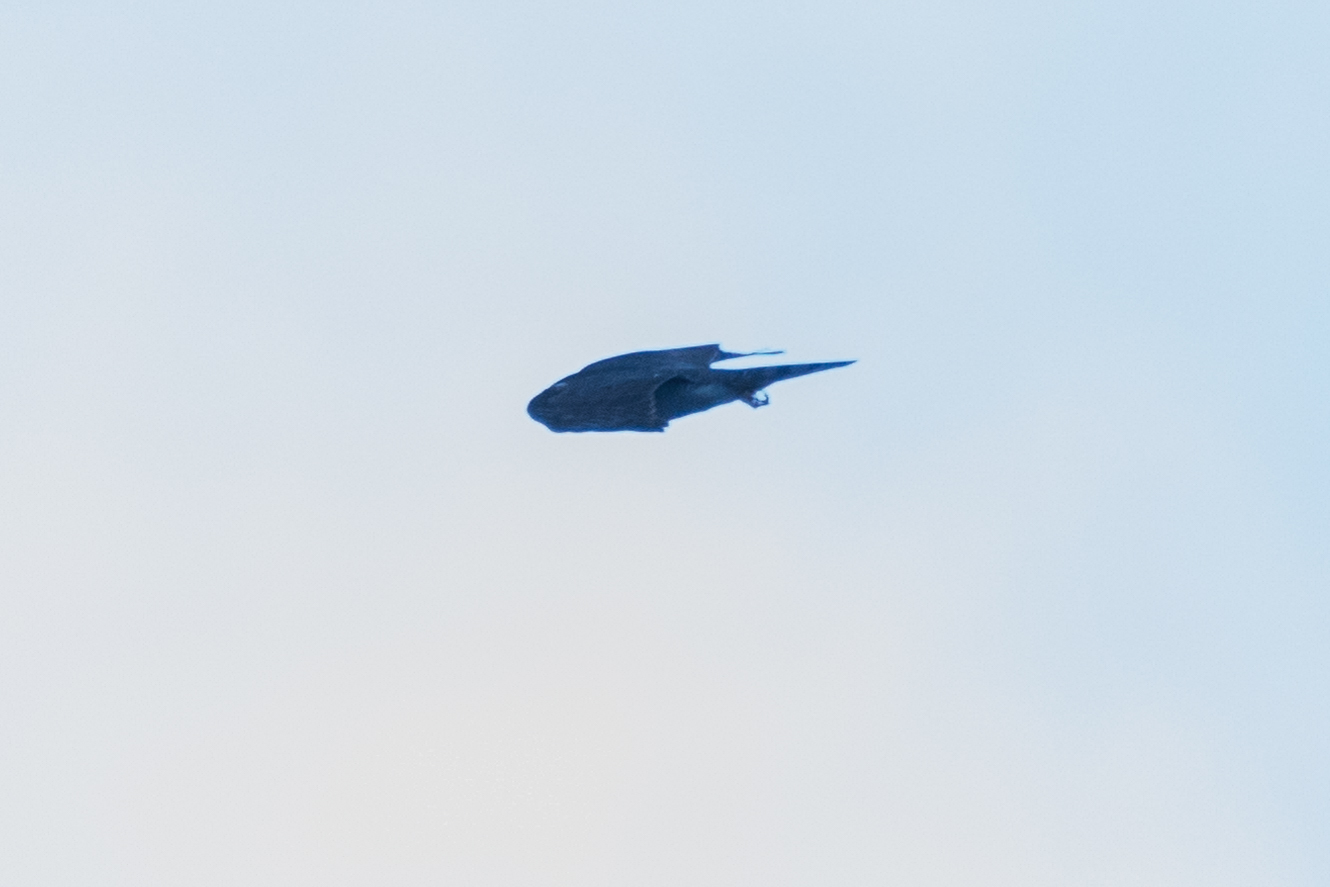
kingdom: Animalia
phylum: Chordata
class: Aves
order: Accipitriformes
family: Accipitridae
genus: Accipiter
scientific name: Accipiter nisus
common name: Eurasian sparrowhawk
